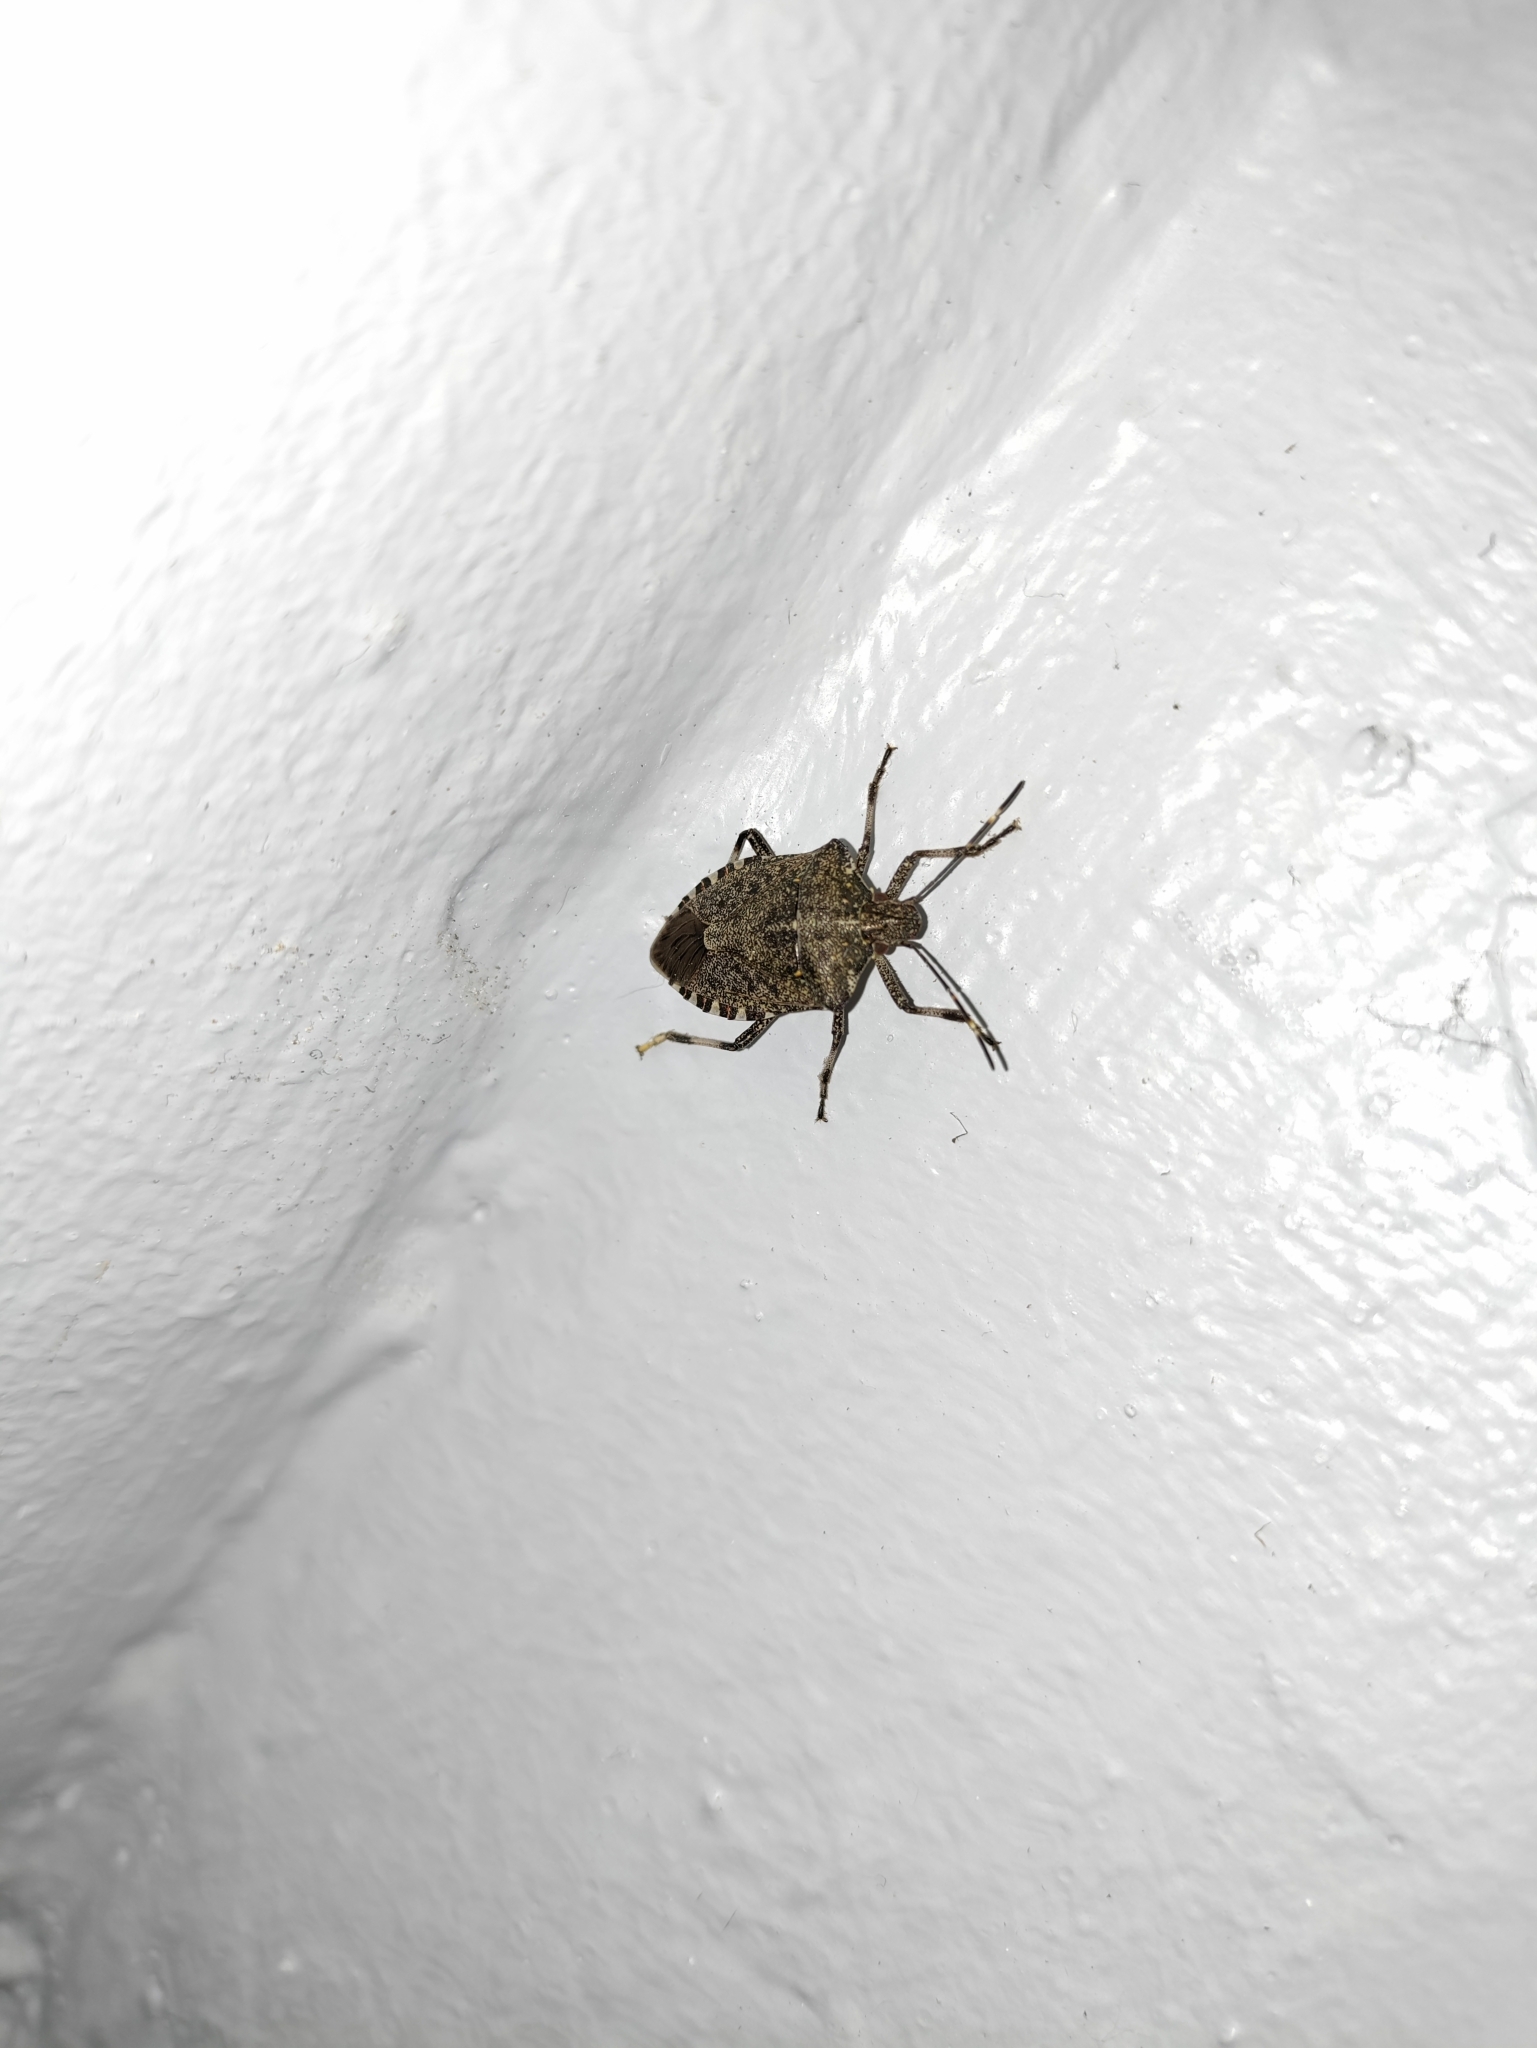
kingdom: Animalia
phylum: Arthropoda
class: Insecta
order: Hemiptera
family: Pentatomidae
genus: Halyomorpha
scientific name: Halyomorpha halys
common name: Brown marmorated stink bug
